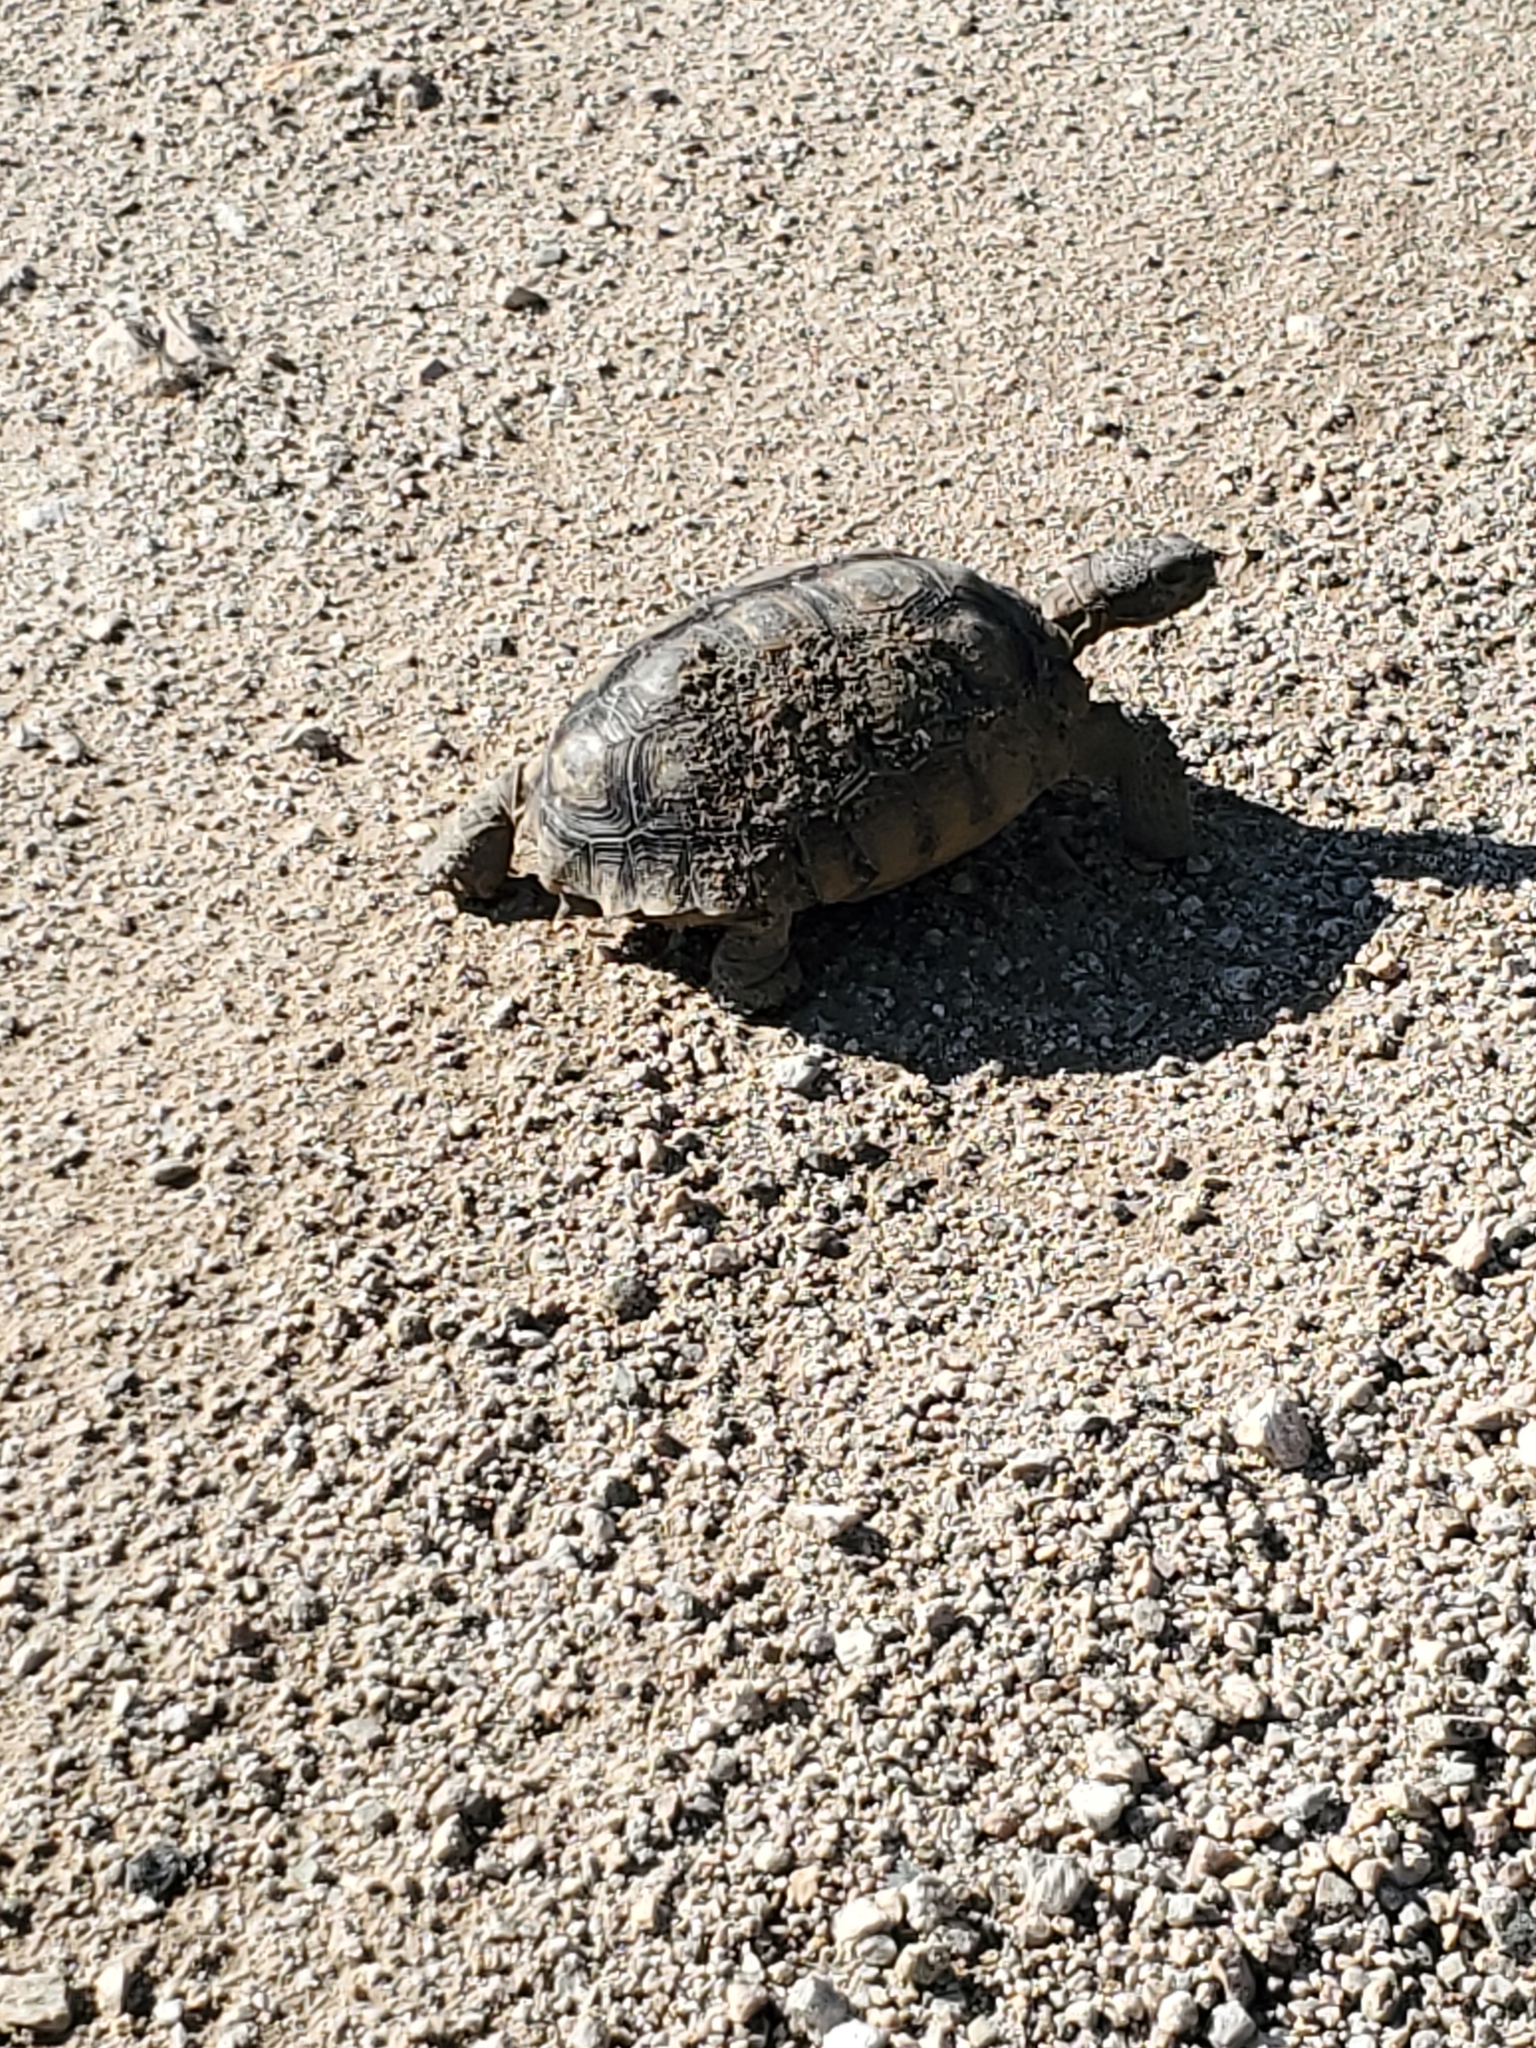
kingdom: Animalia
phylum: Chordata
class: Testudines
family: Testudinidae
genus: Gopherus
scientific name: Gopherus agassizii
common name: Mojave desert tortoise
